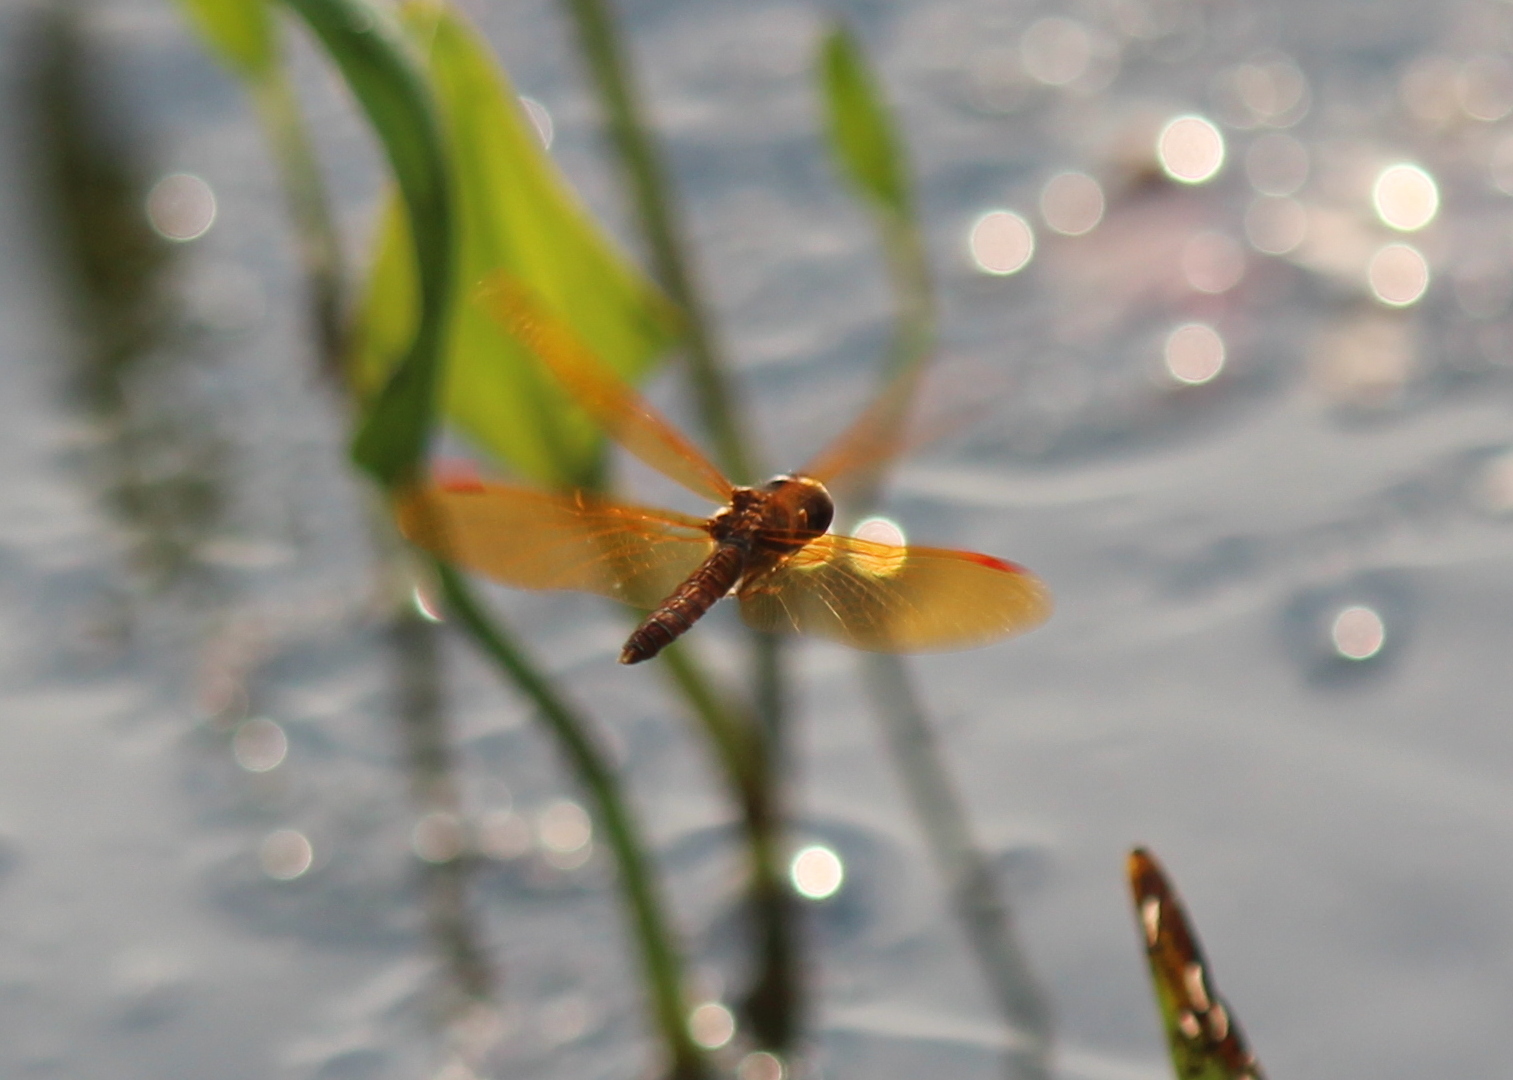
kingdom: Animalia
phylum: Arthropoda
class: Insecta
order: Odonata
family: Libellulidae
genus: Perithemis
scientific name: Perithemis tenera
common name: Eastern amberwing
